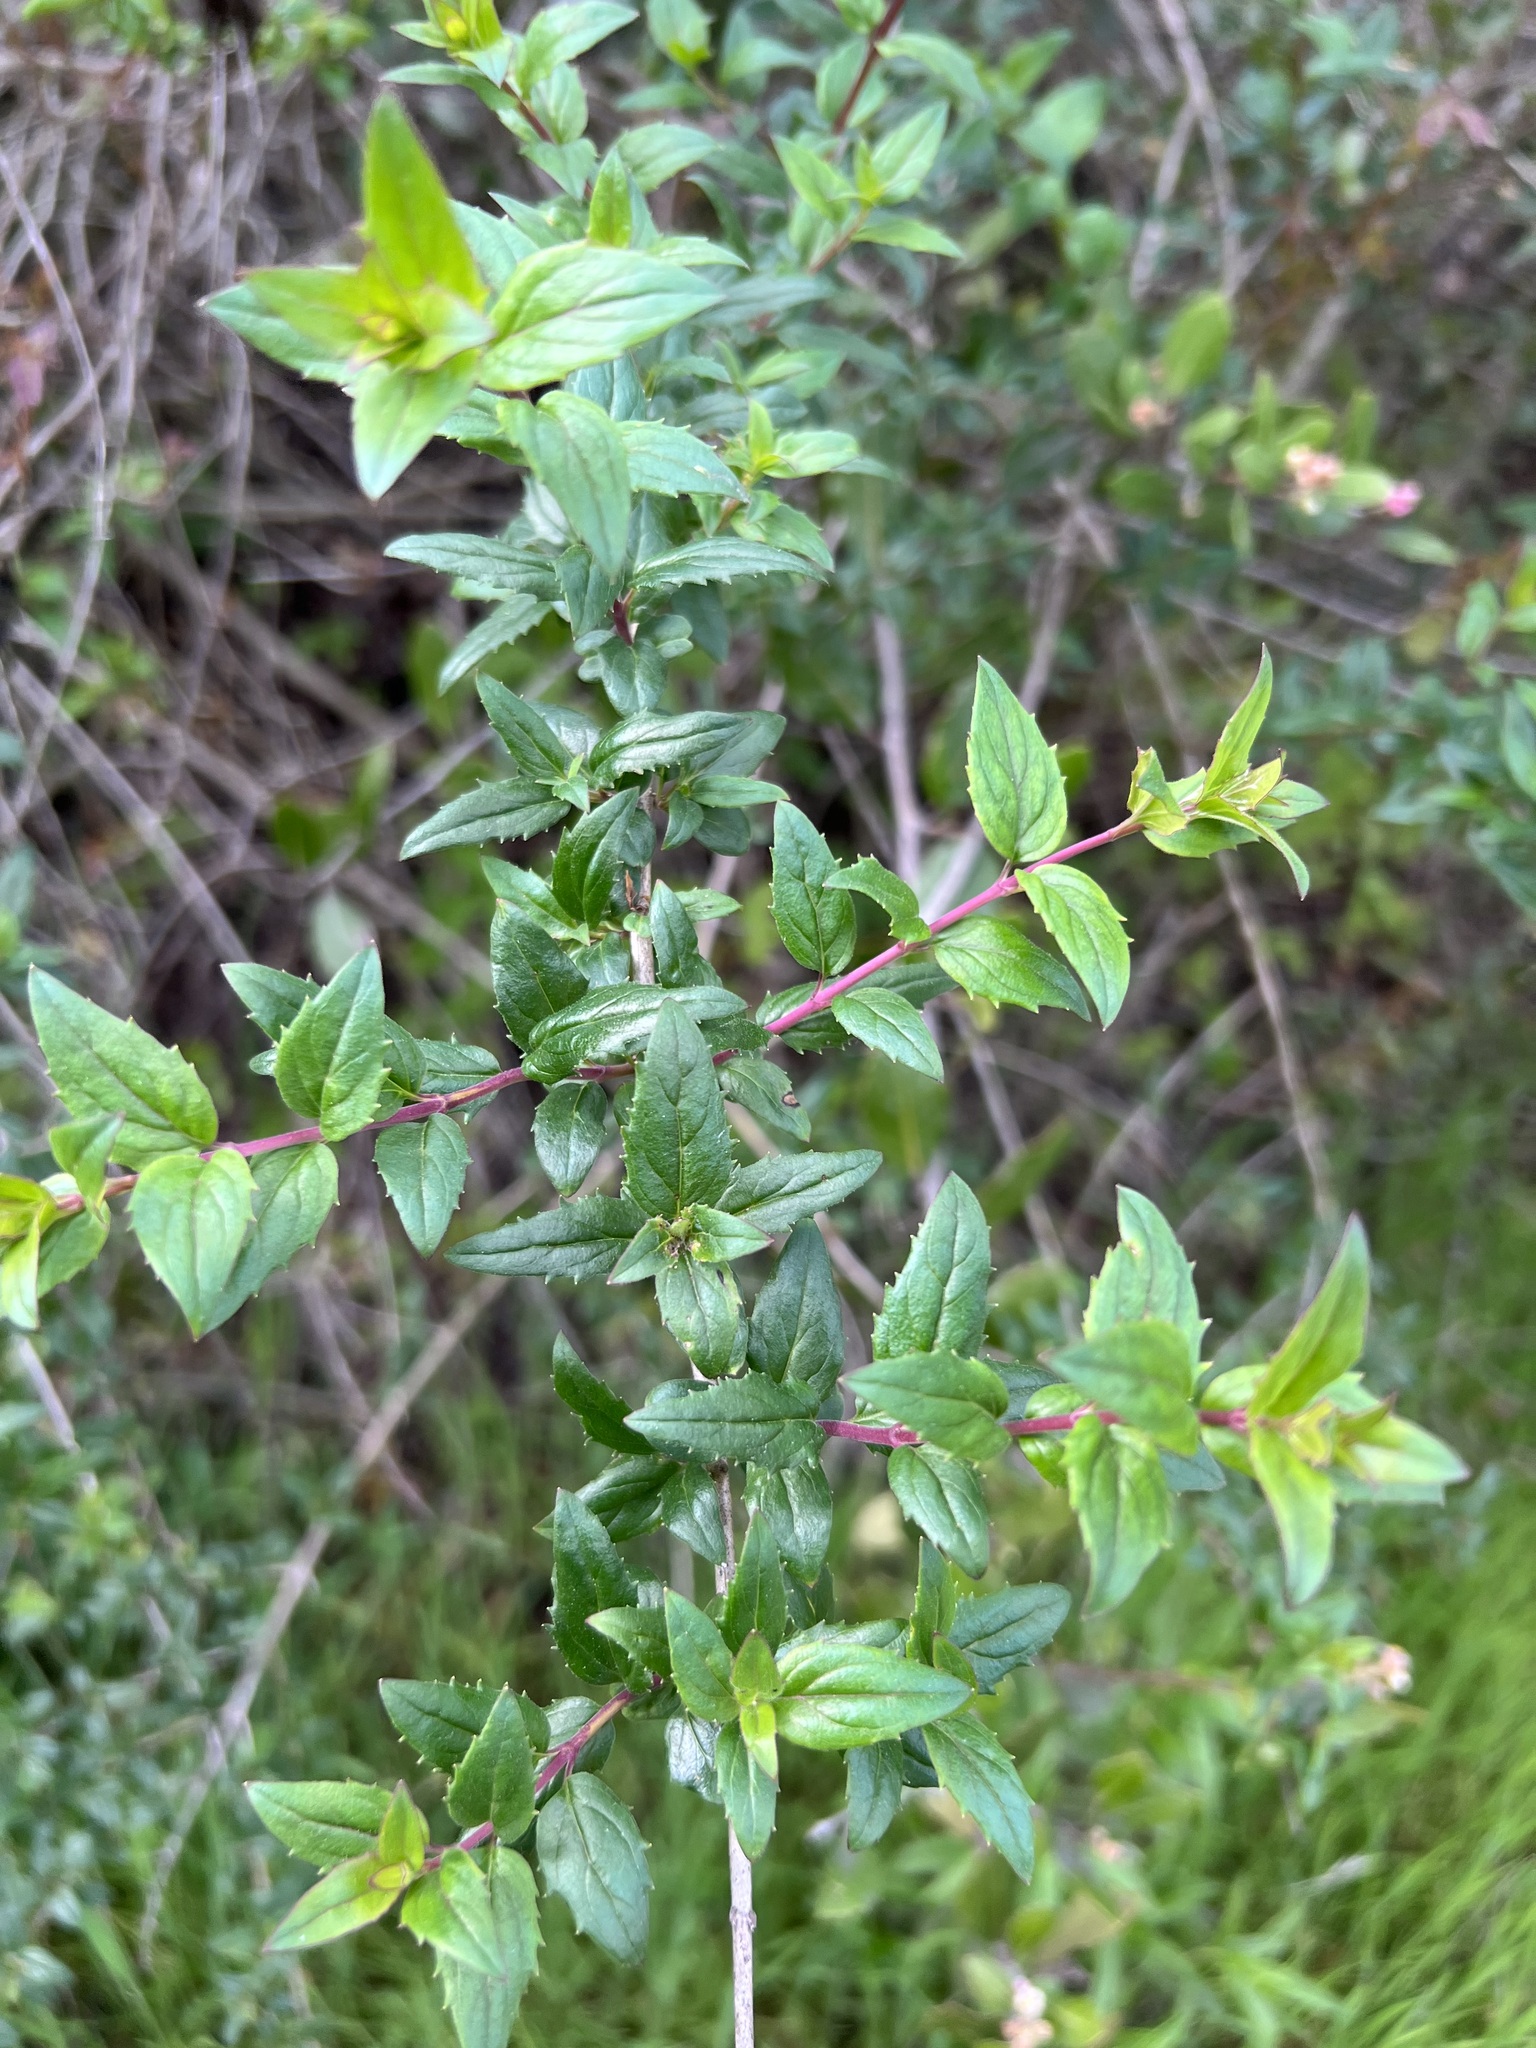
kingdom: Plantae
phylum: Tracheophyta
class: Magnoliopsida
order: Lamiales
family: Plantaginaceae
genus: Keckiella
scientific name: Keckiella cordifolia
